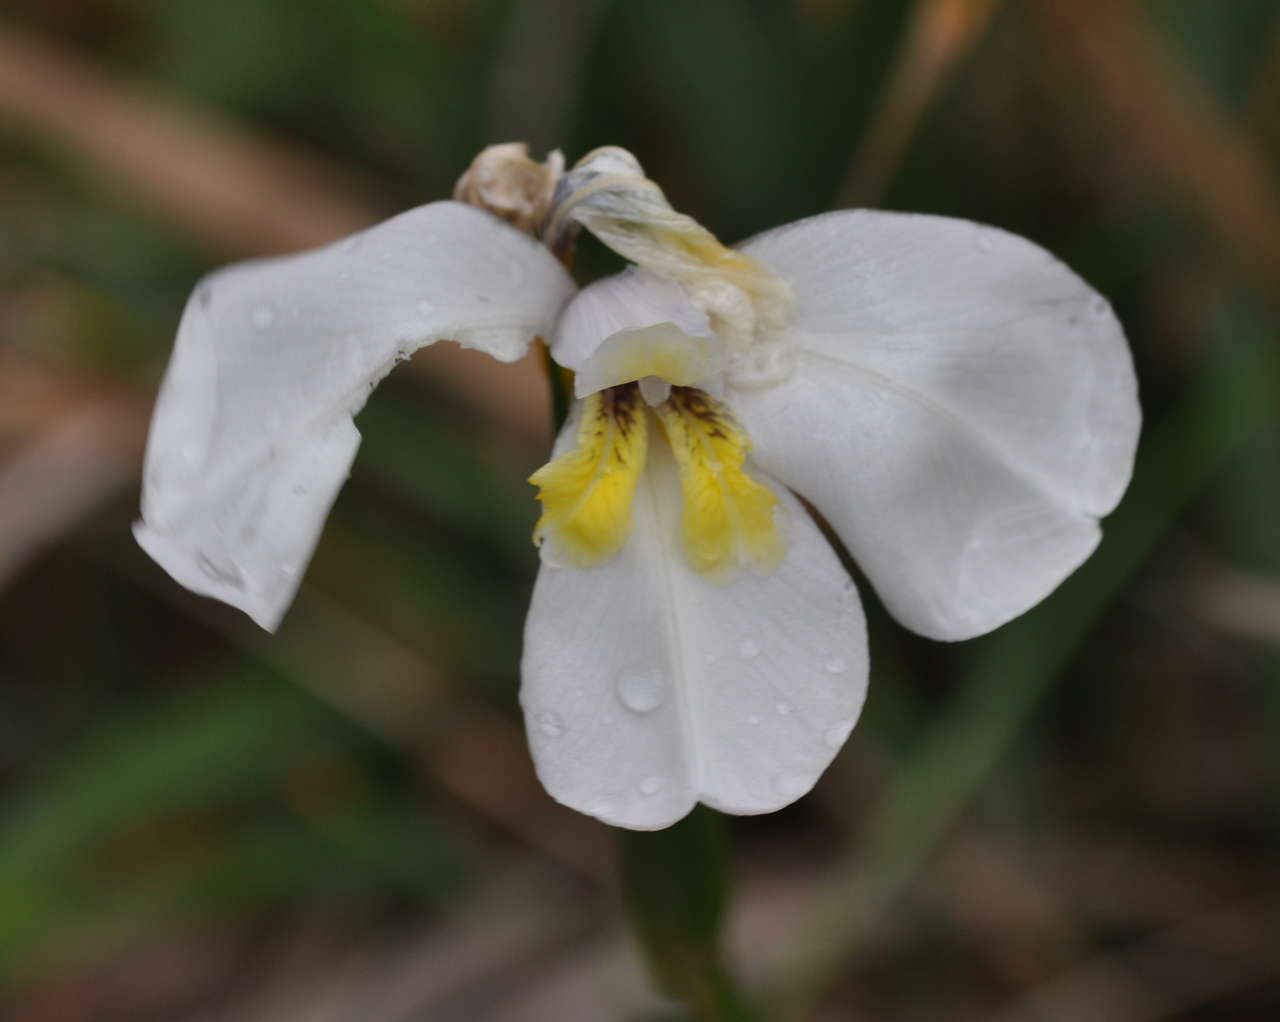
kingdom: Plantae
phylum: Tracheophyta
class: Liliopsida
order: Asparagales
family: Iridaceae
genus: Diplarrena
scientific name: Diplarrena moraea
